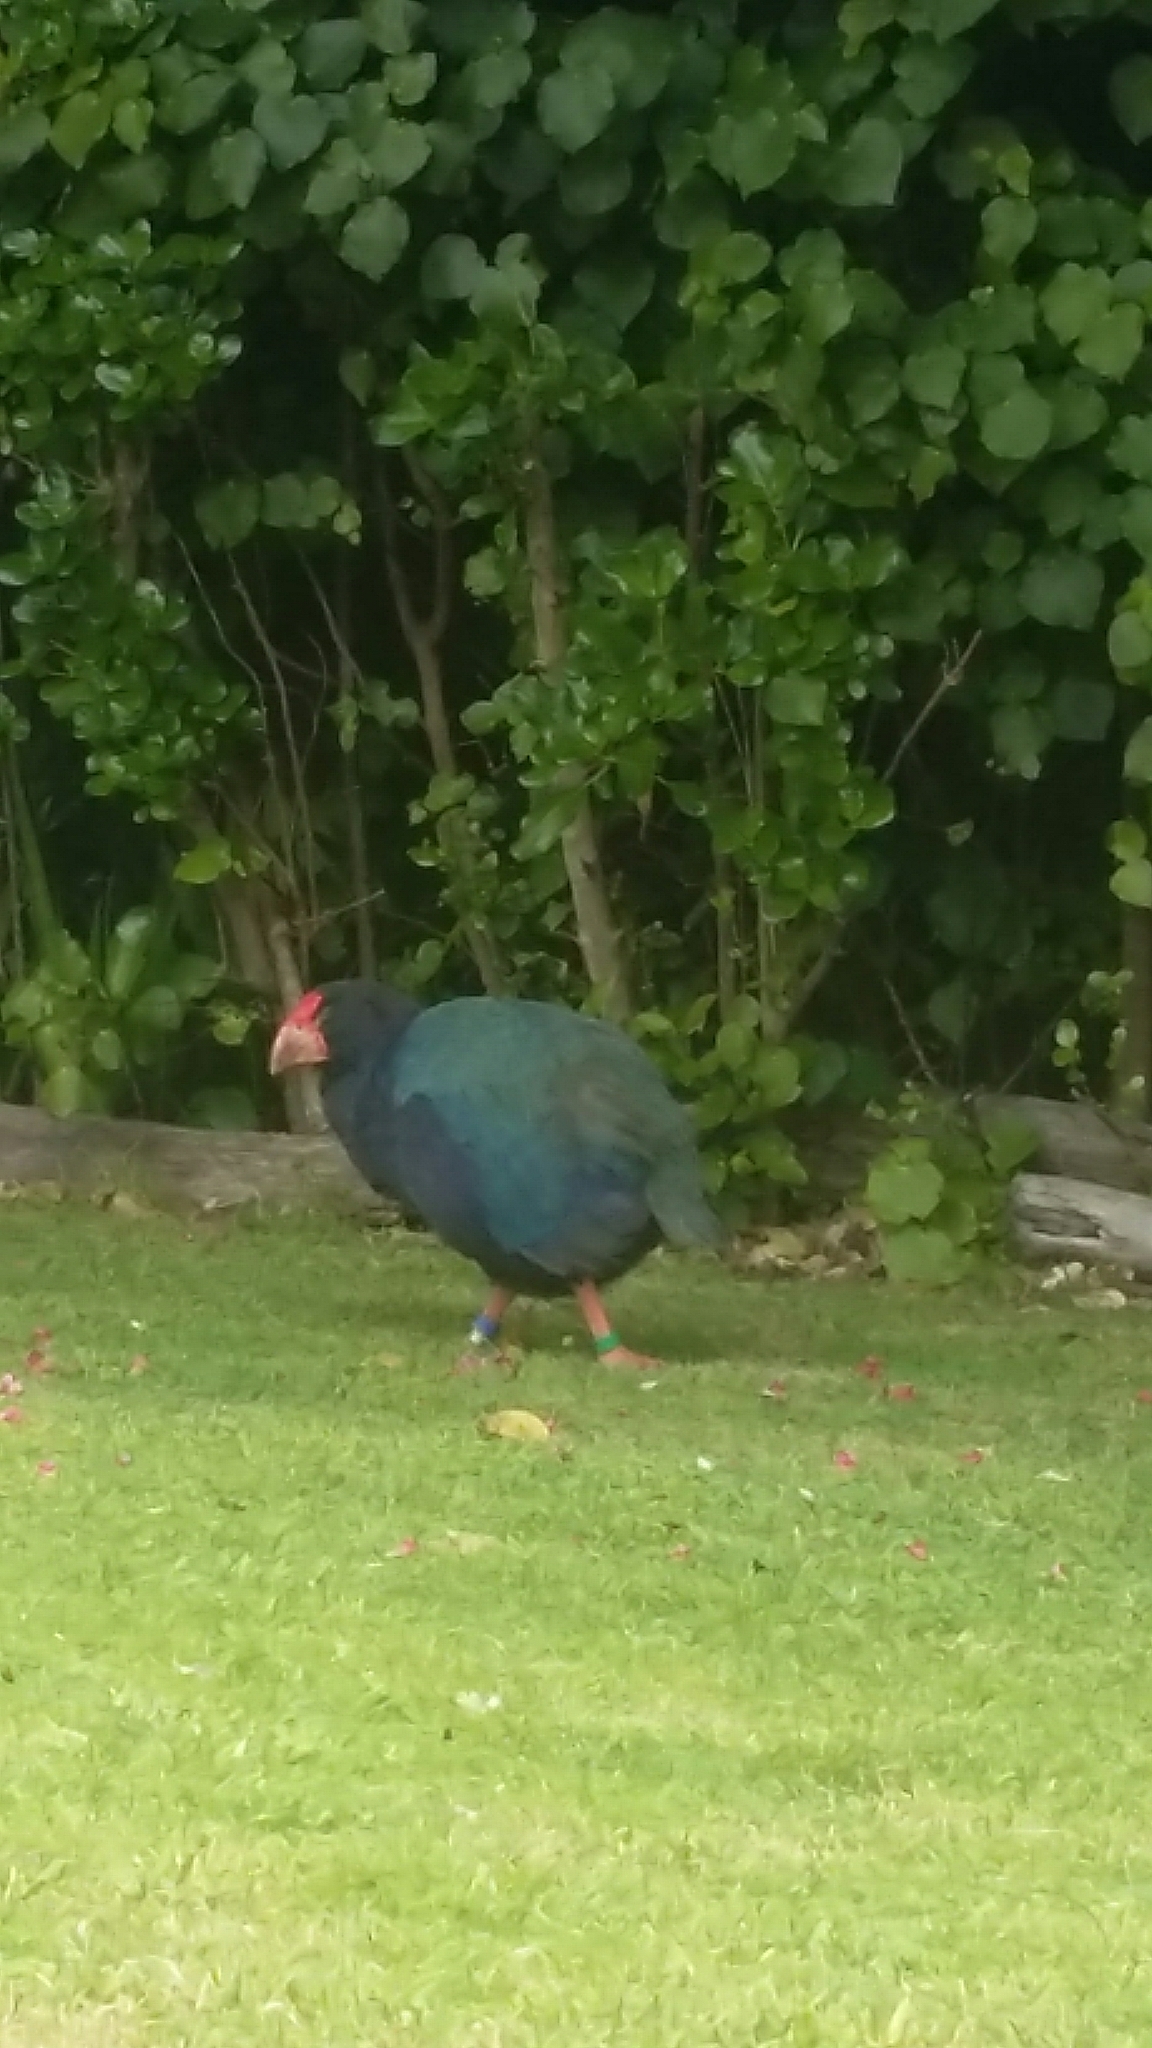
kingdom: Animalia
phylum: Chordata
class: Aves
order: Gruiformes
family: Rallidae
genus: Porphyrio
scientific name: Porphyrio hochstetteri
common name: South island takahe
